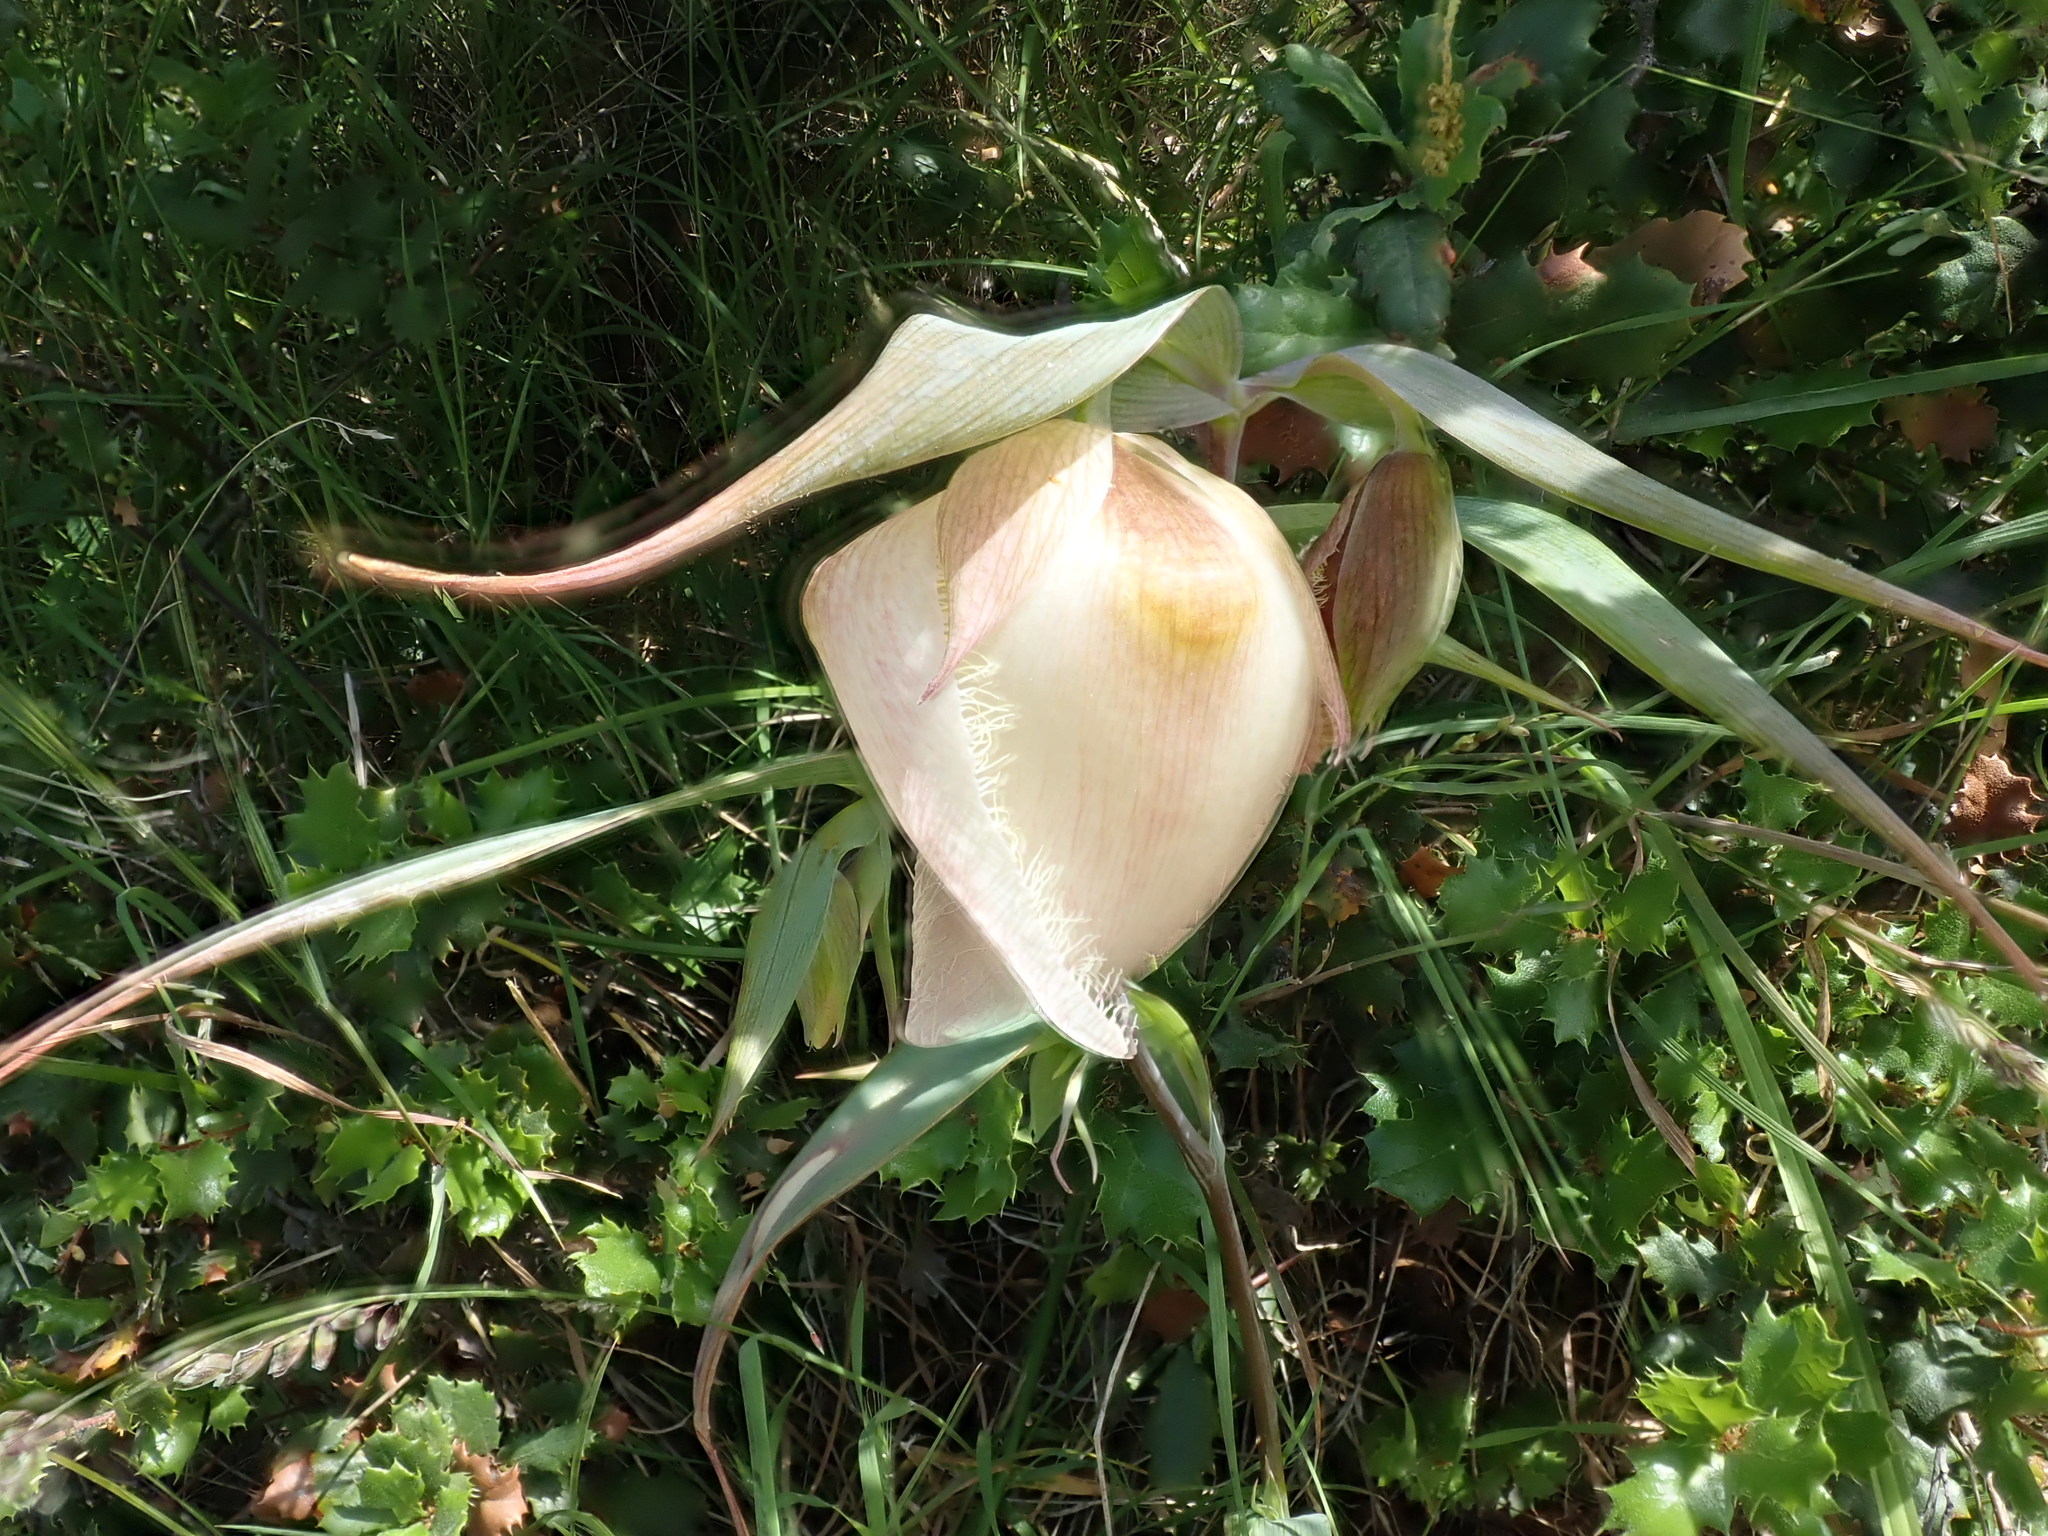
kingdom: Plantae
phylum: Tracheophyta
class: Liliopsida
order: Liliales
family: Liliaceae
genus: Calochortus
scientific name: Calochortus albus
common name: Fairy-lantern
